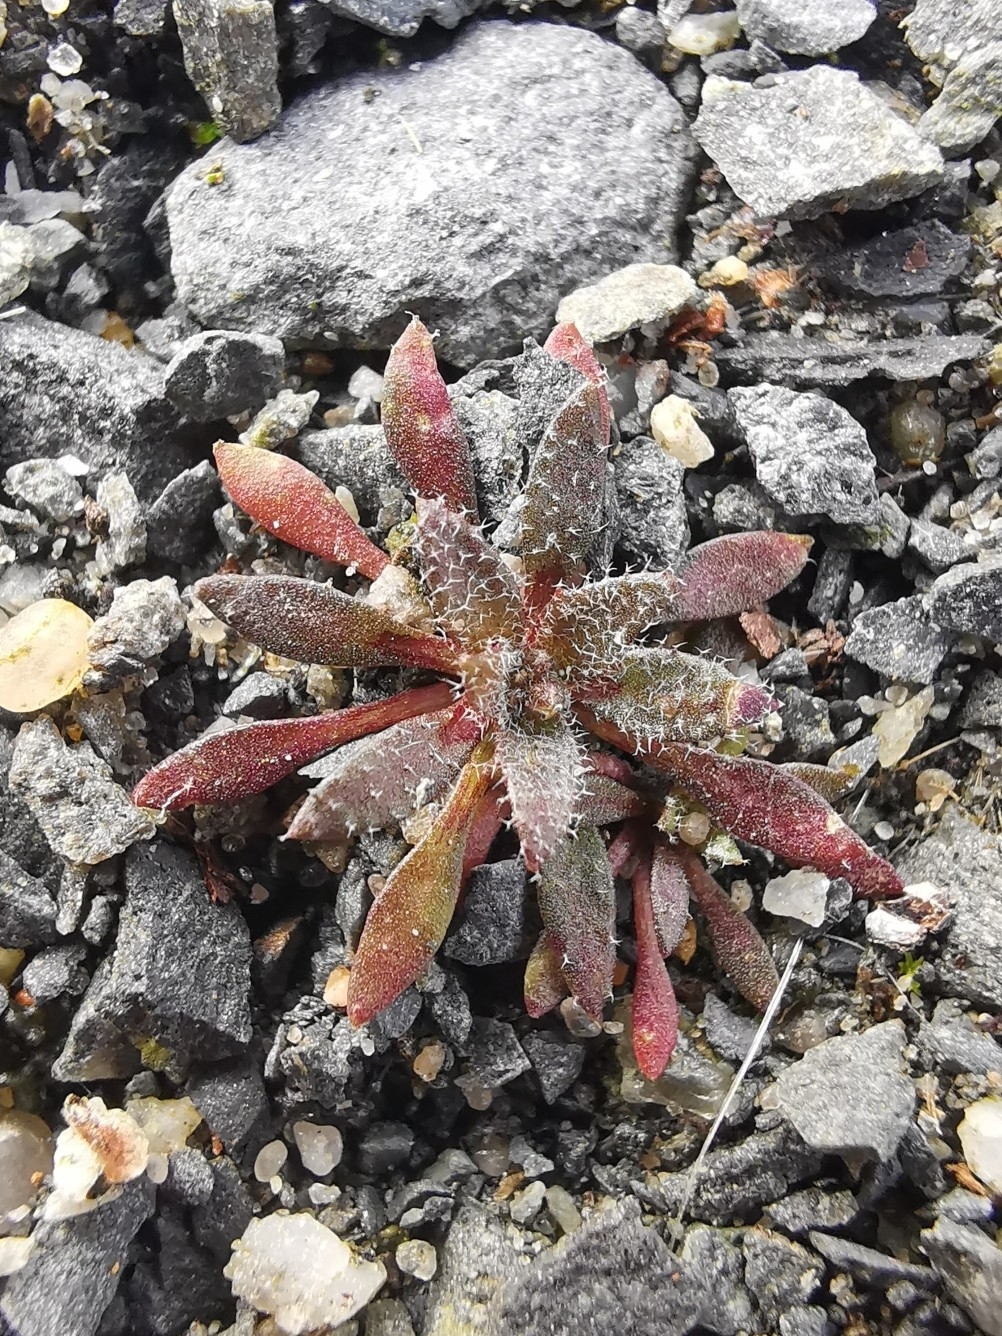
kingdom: Plantae
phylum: Tracheophyta
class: Magnoliopsida
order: Brassicales
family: Brassicaceae
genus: Draba
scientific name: Draba verna
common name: Spring draba
